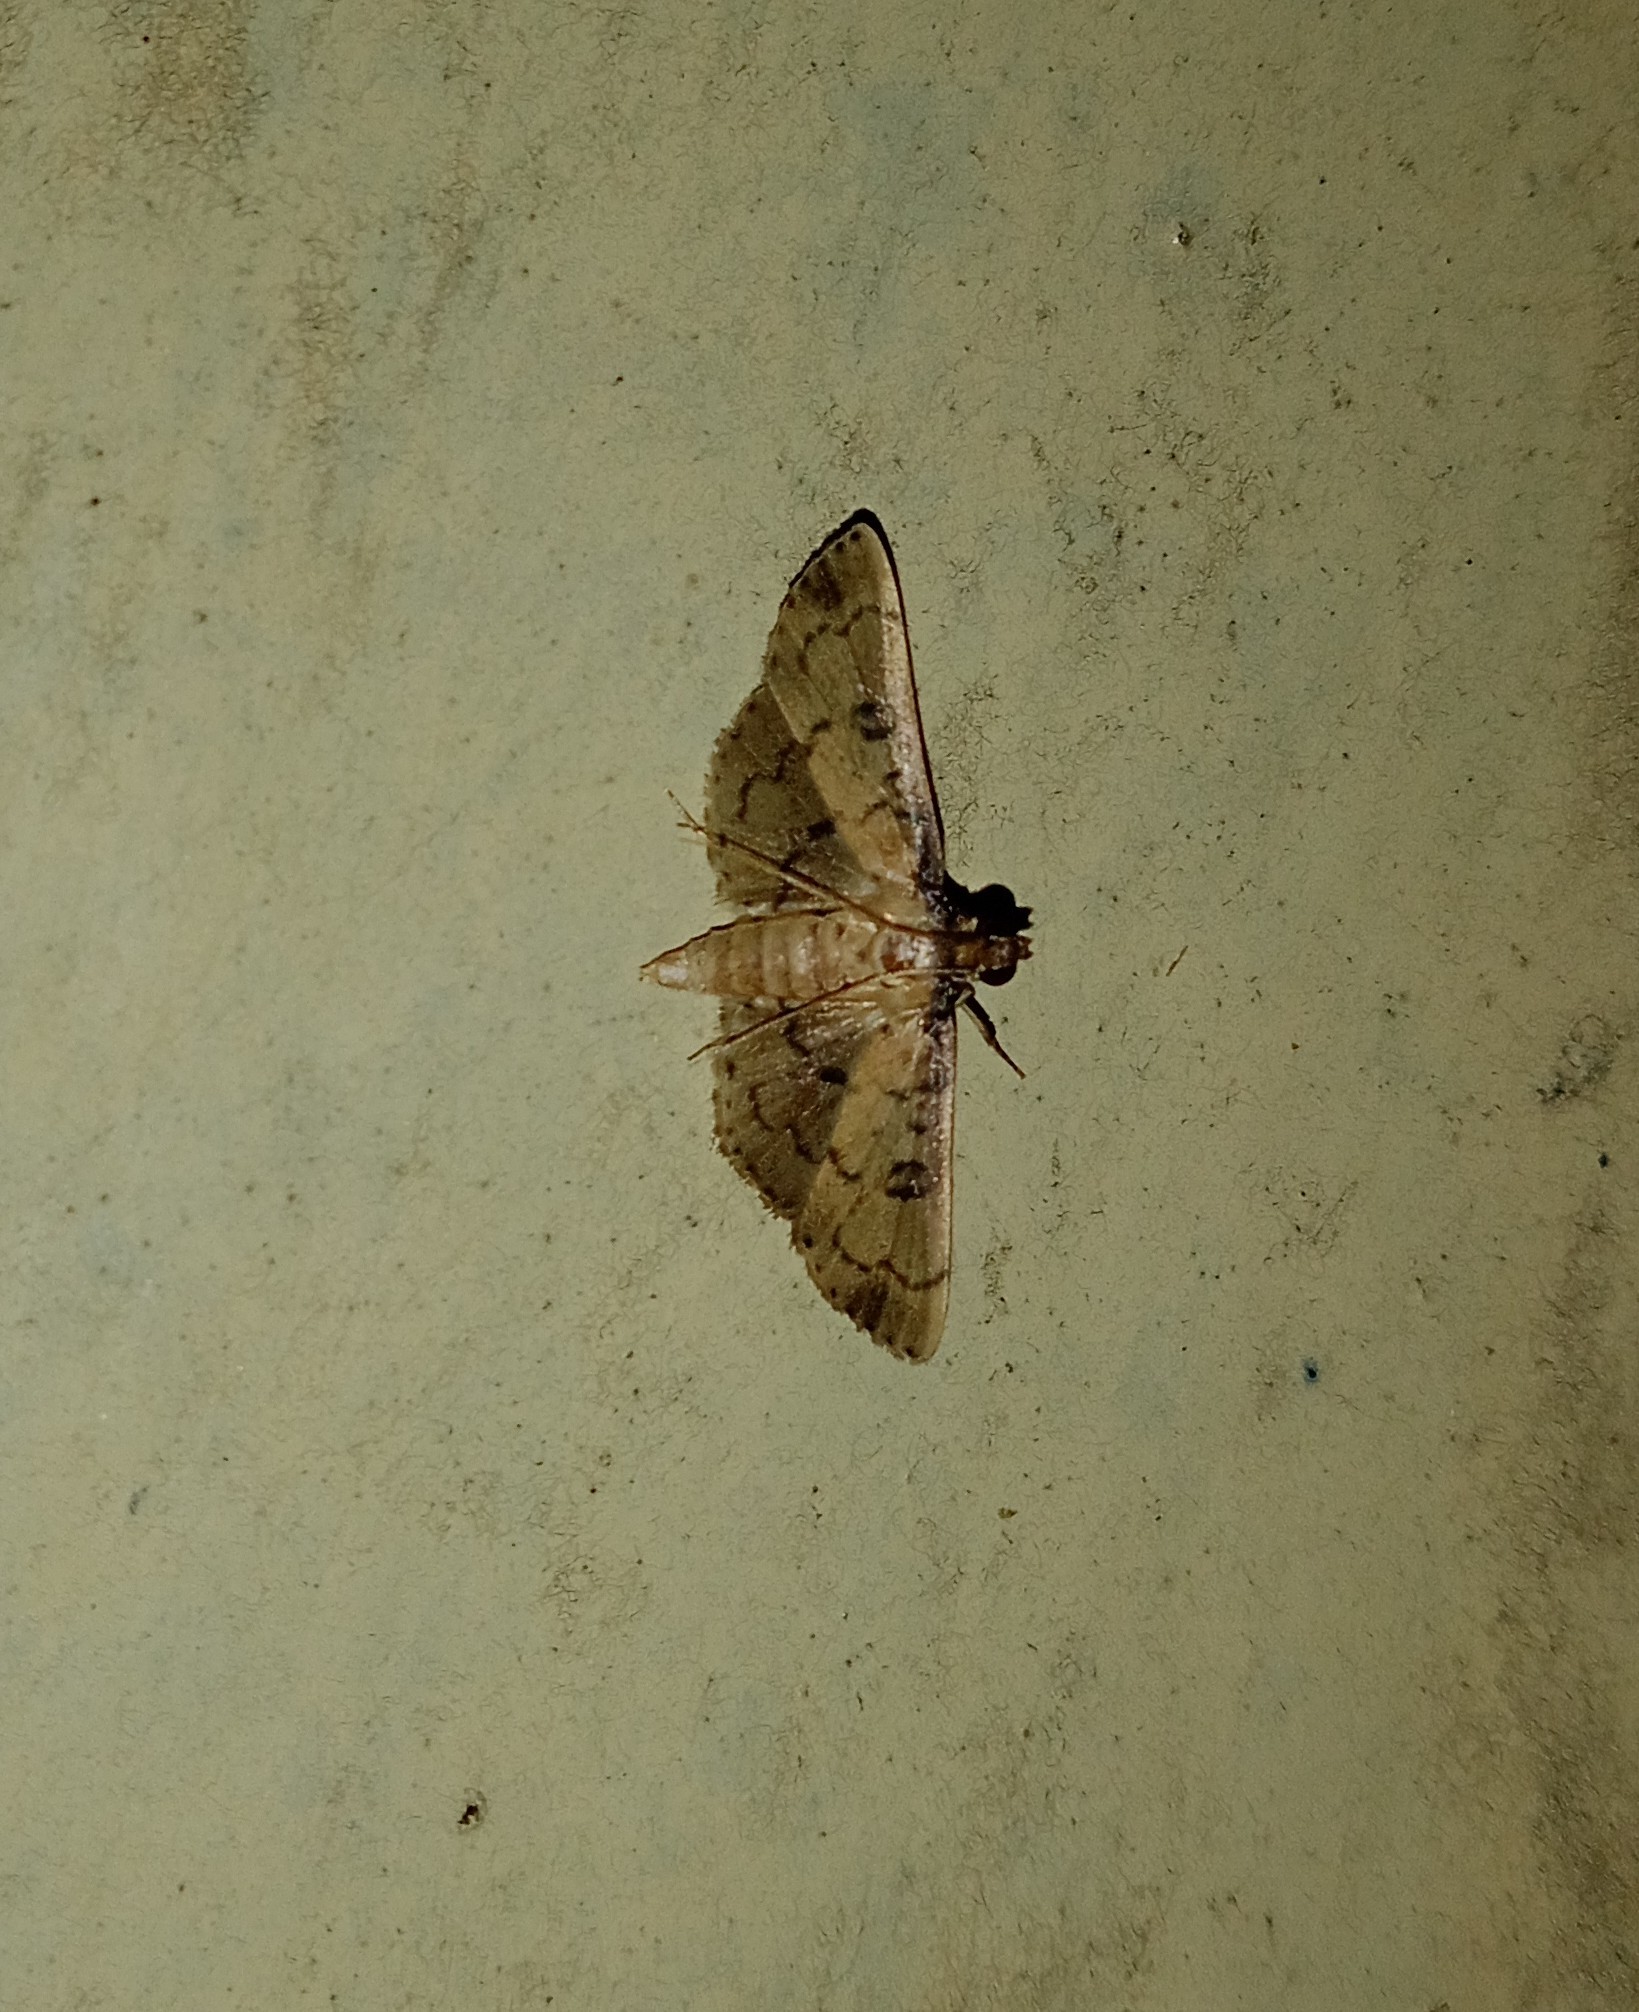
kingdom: Animalia
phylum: Arthropoda
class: Insecta
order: Lepidoptera
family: Crambidae
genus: Nacoleia
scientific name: Nacoleia charesalis
